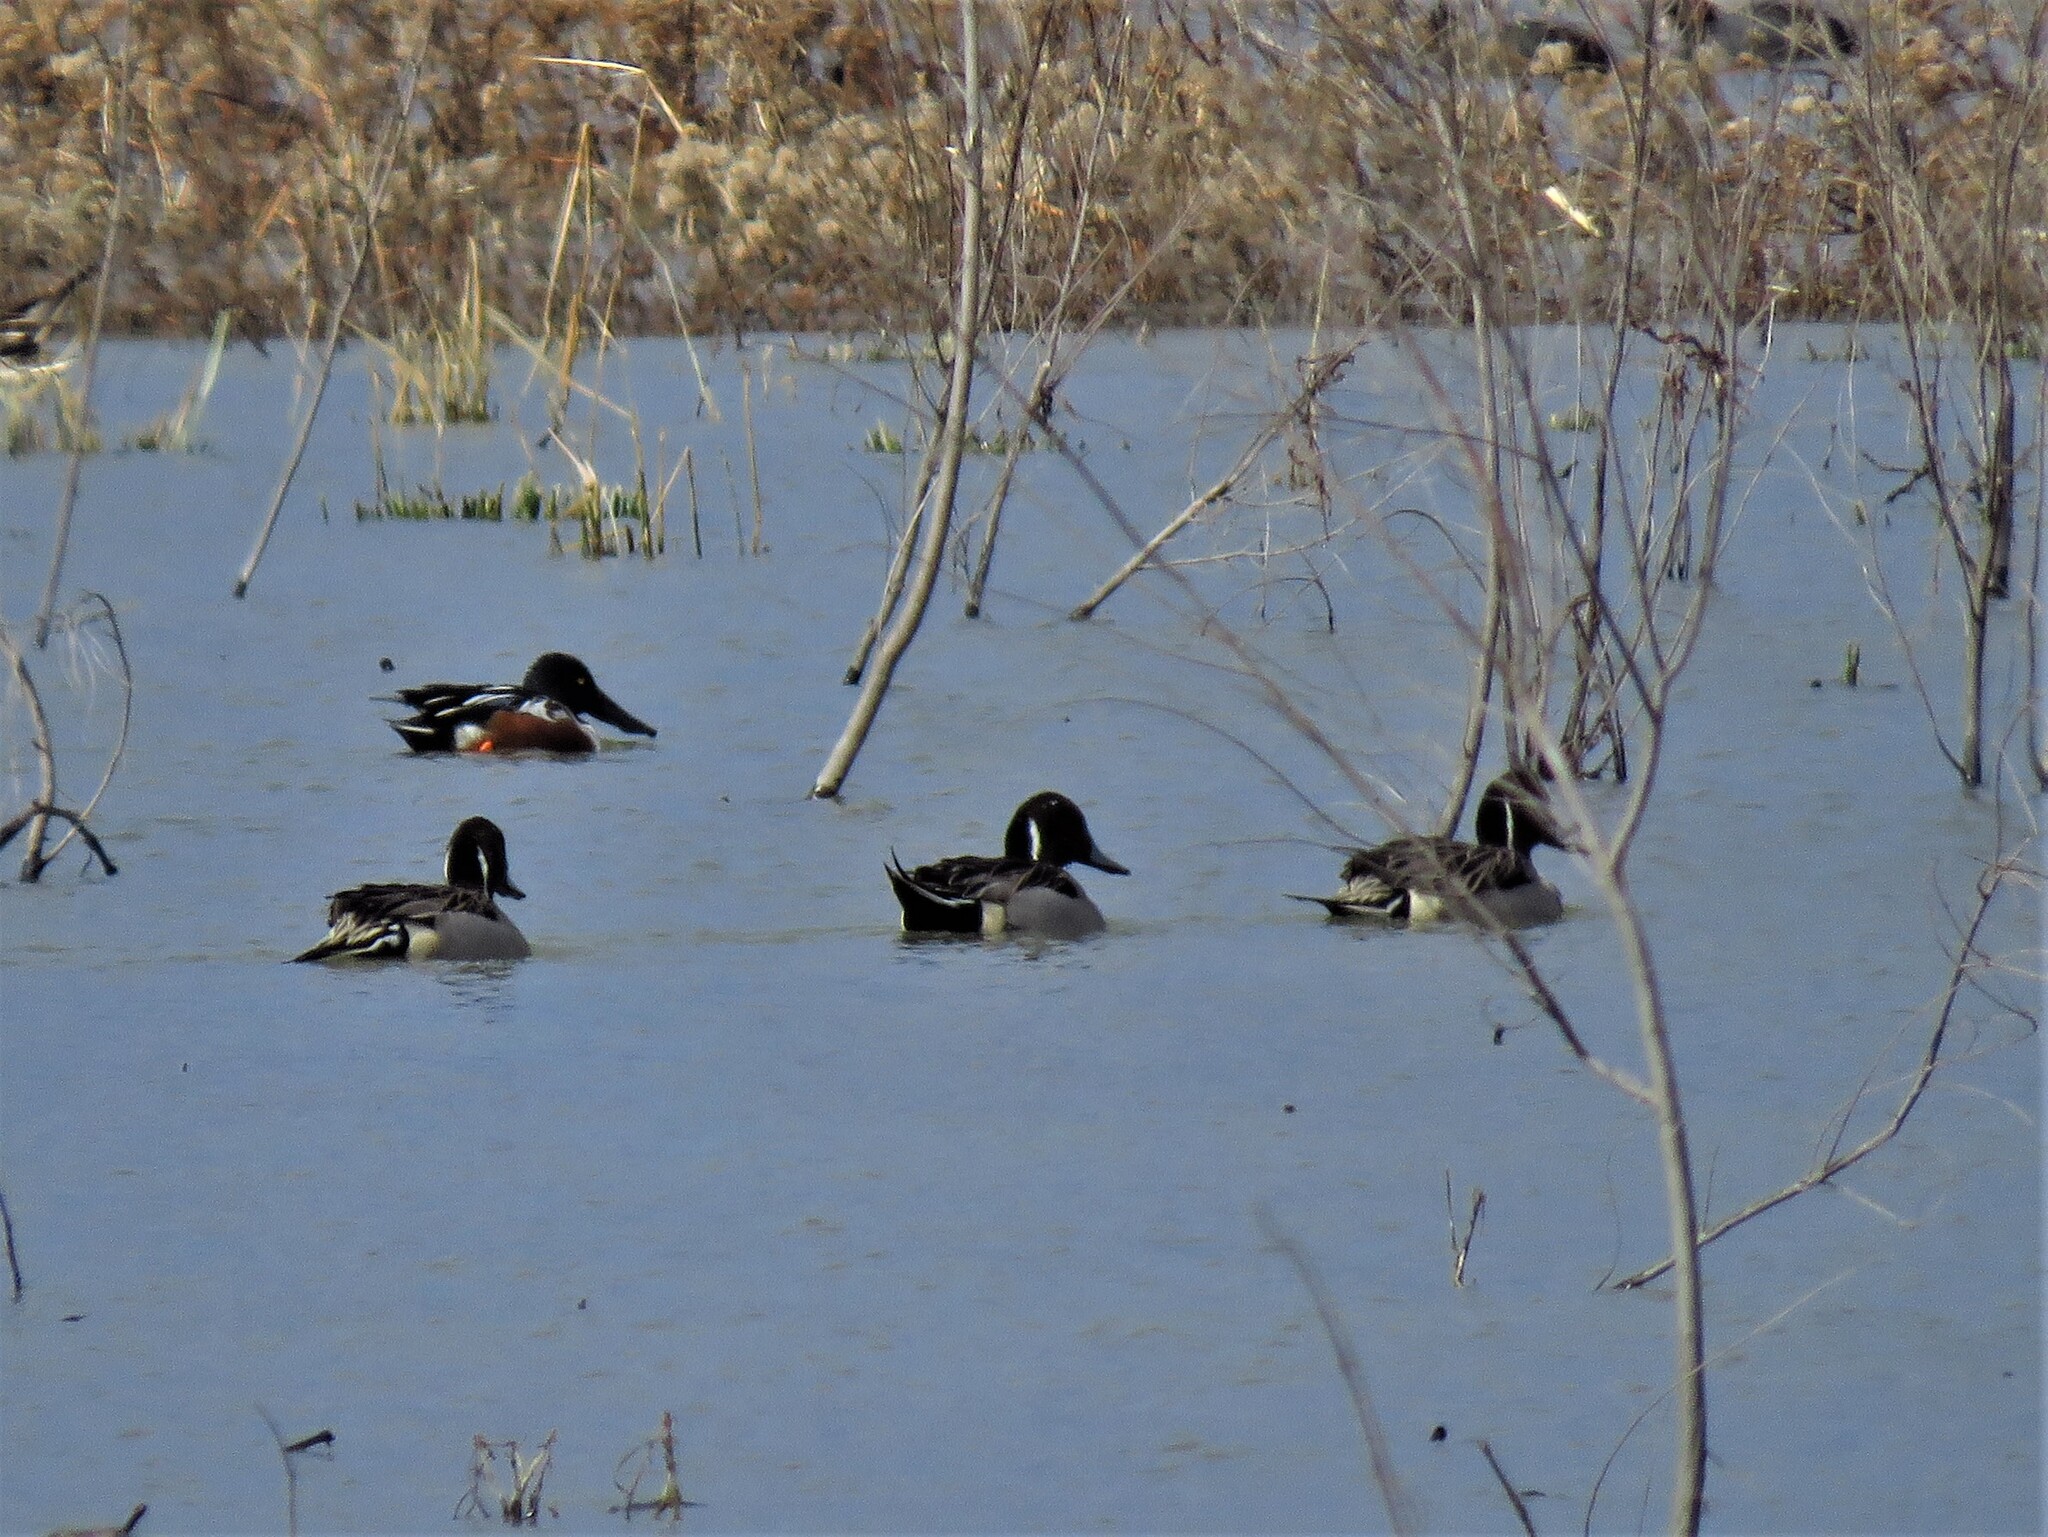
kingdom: Animalia
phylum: Chordata
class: Aves
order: Anseriformes
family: Anatidae
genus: Anas
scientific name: Anas acuta
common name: Northern pintail
